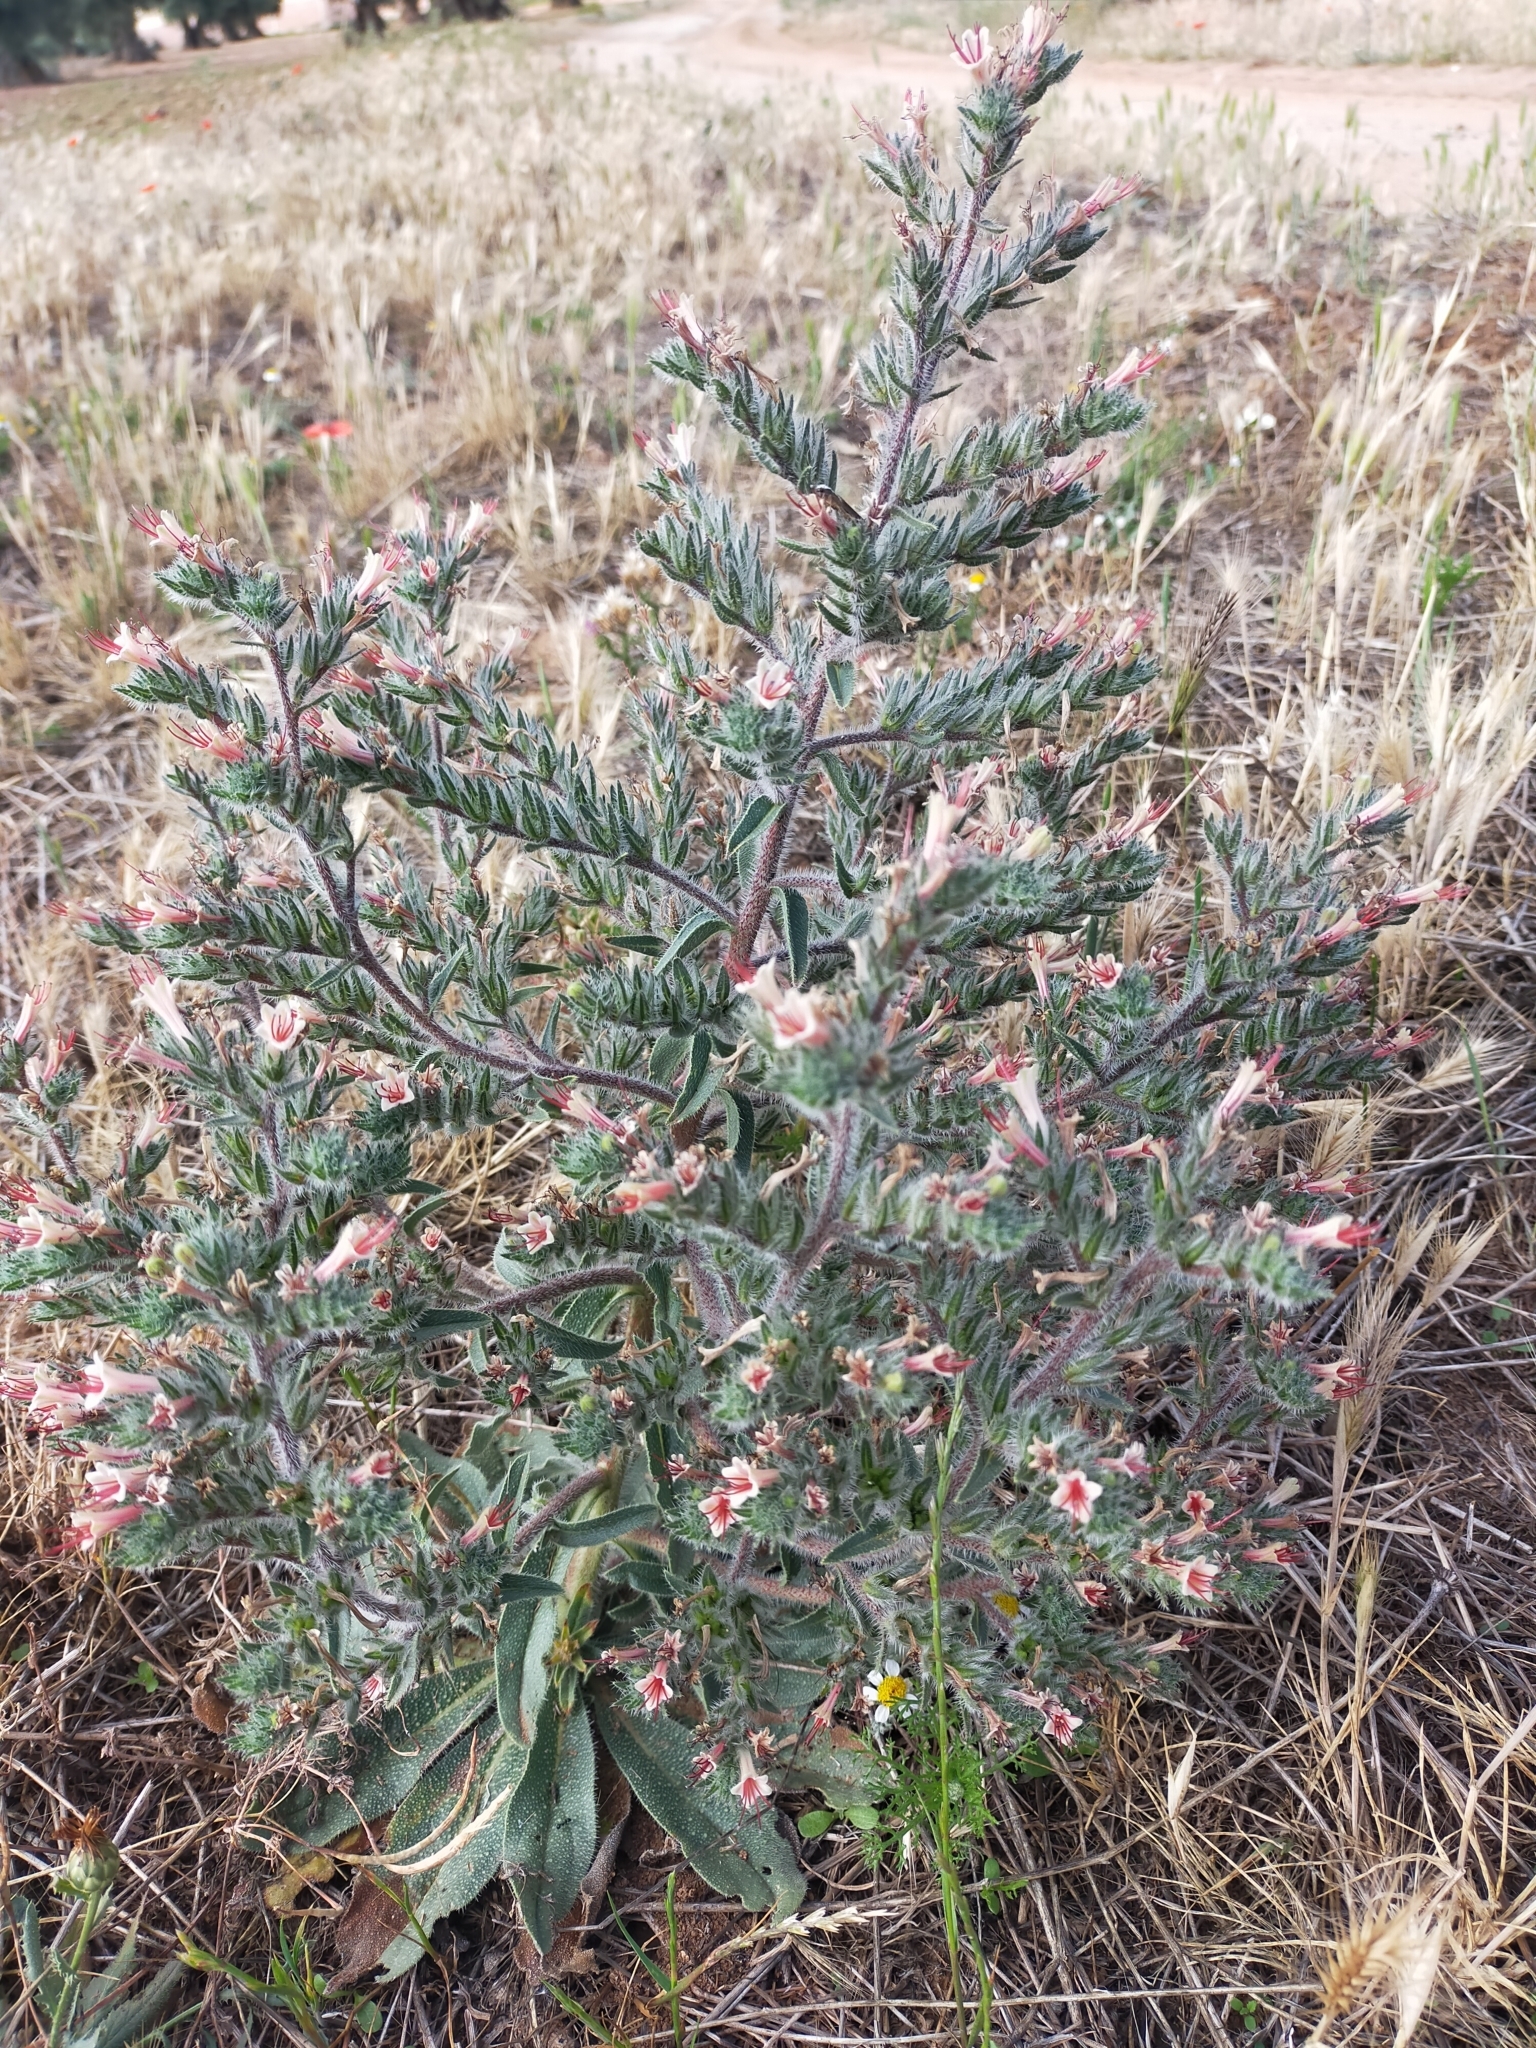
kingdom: Plantae
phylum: Tracheophyta
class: Magnoliopsida
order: Boraginales
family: Boraginaceae
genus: Echium
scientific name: Echium asperrimum
